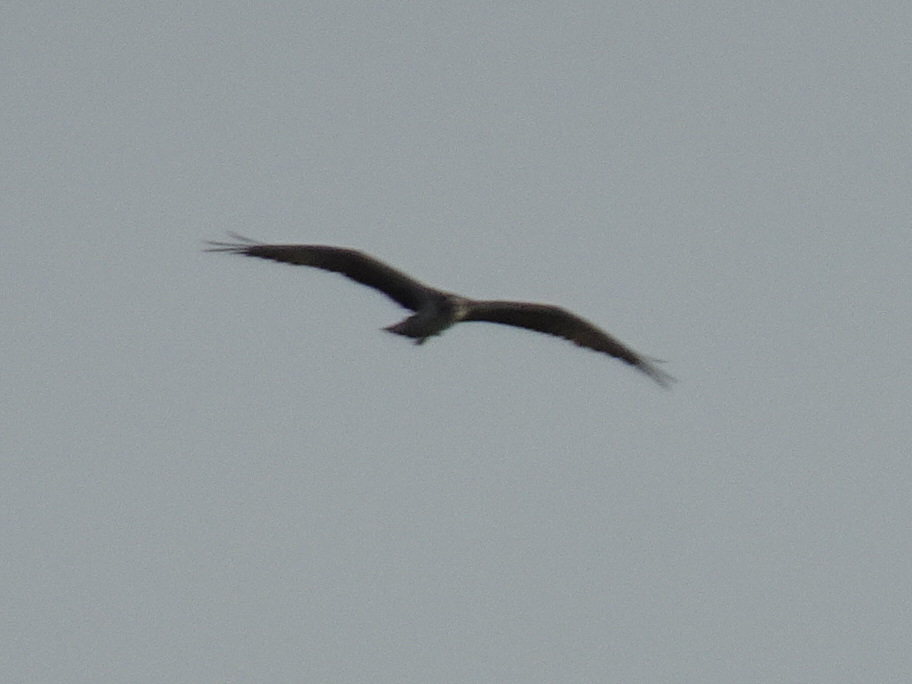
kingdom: Animalia
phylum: Chordata
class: Aves
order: Accipitriformes
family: Pandionidae
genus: Pandion
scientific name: Pandion haliaetus
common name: Osprey
